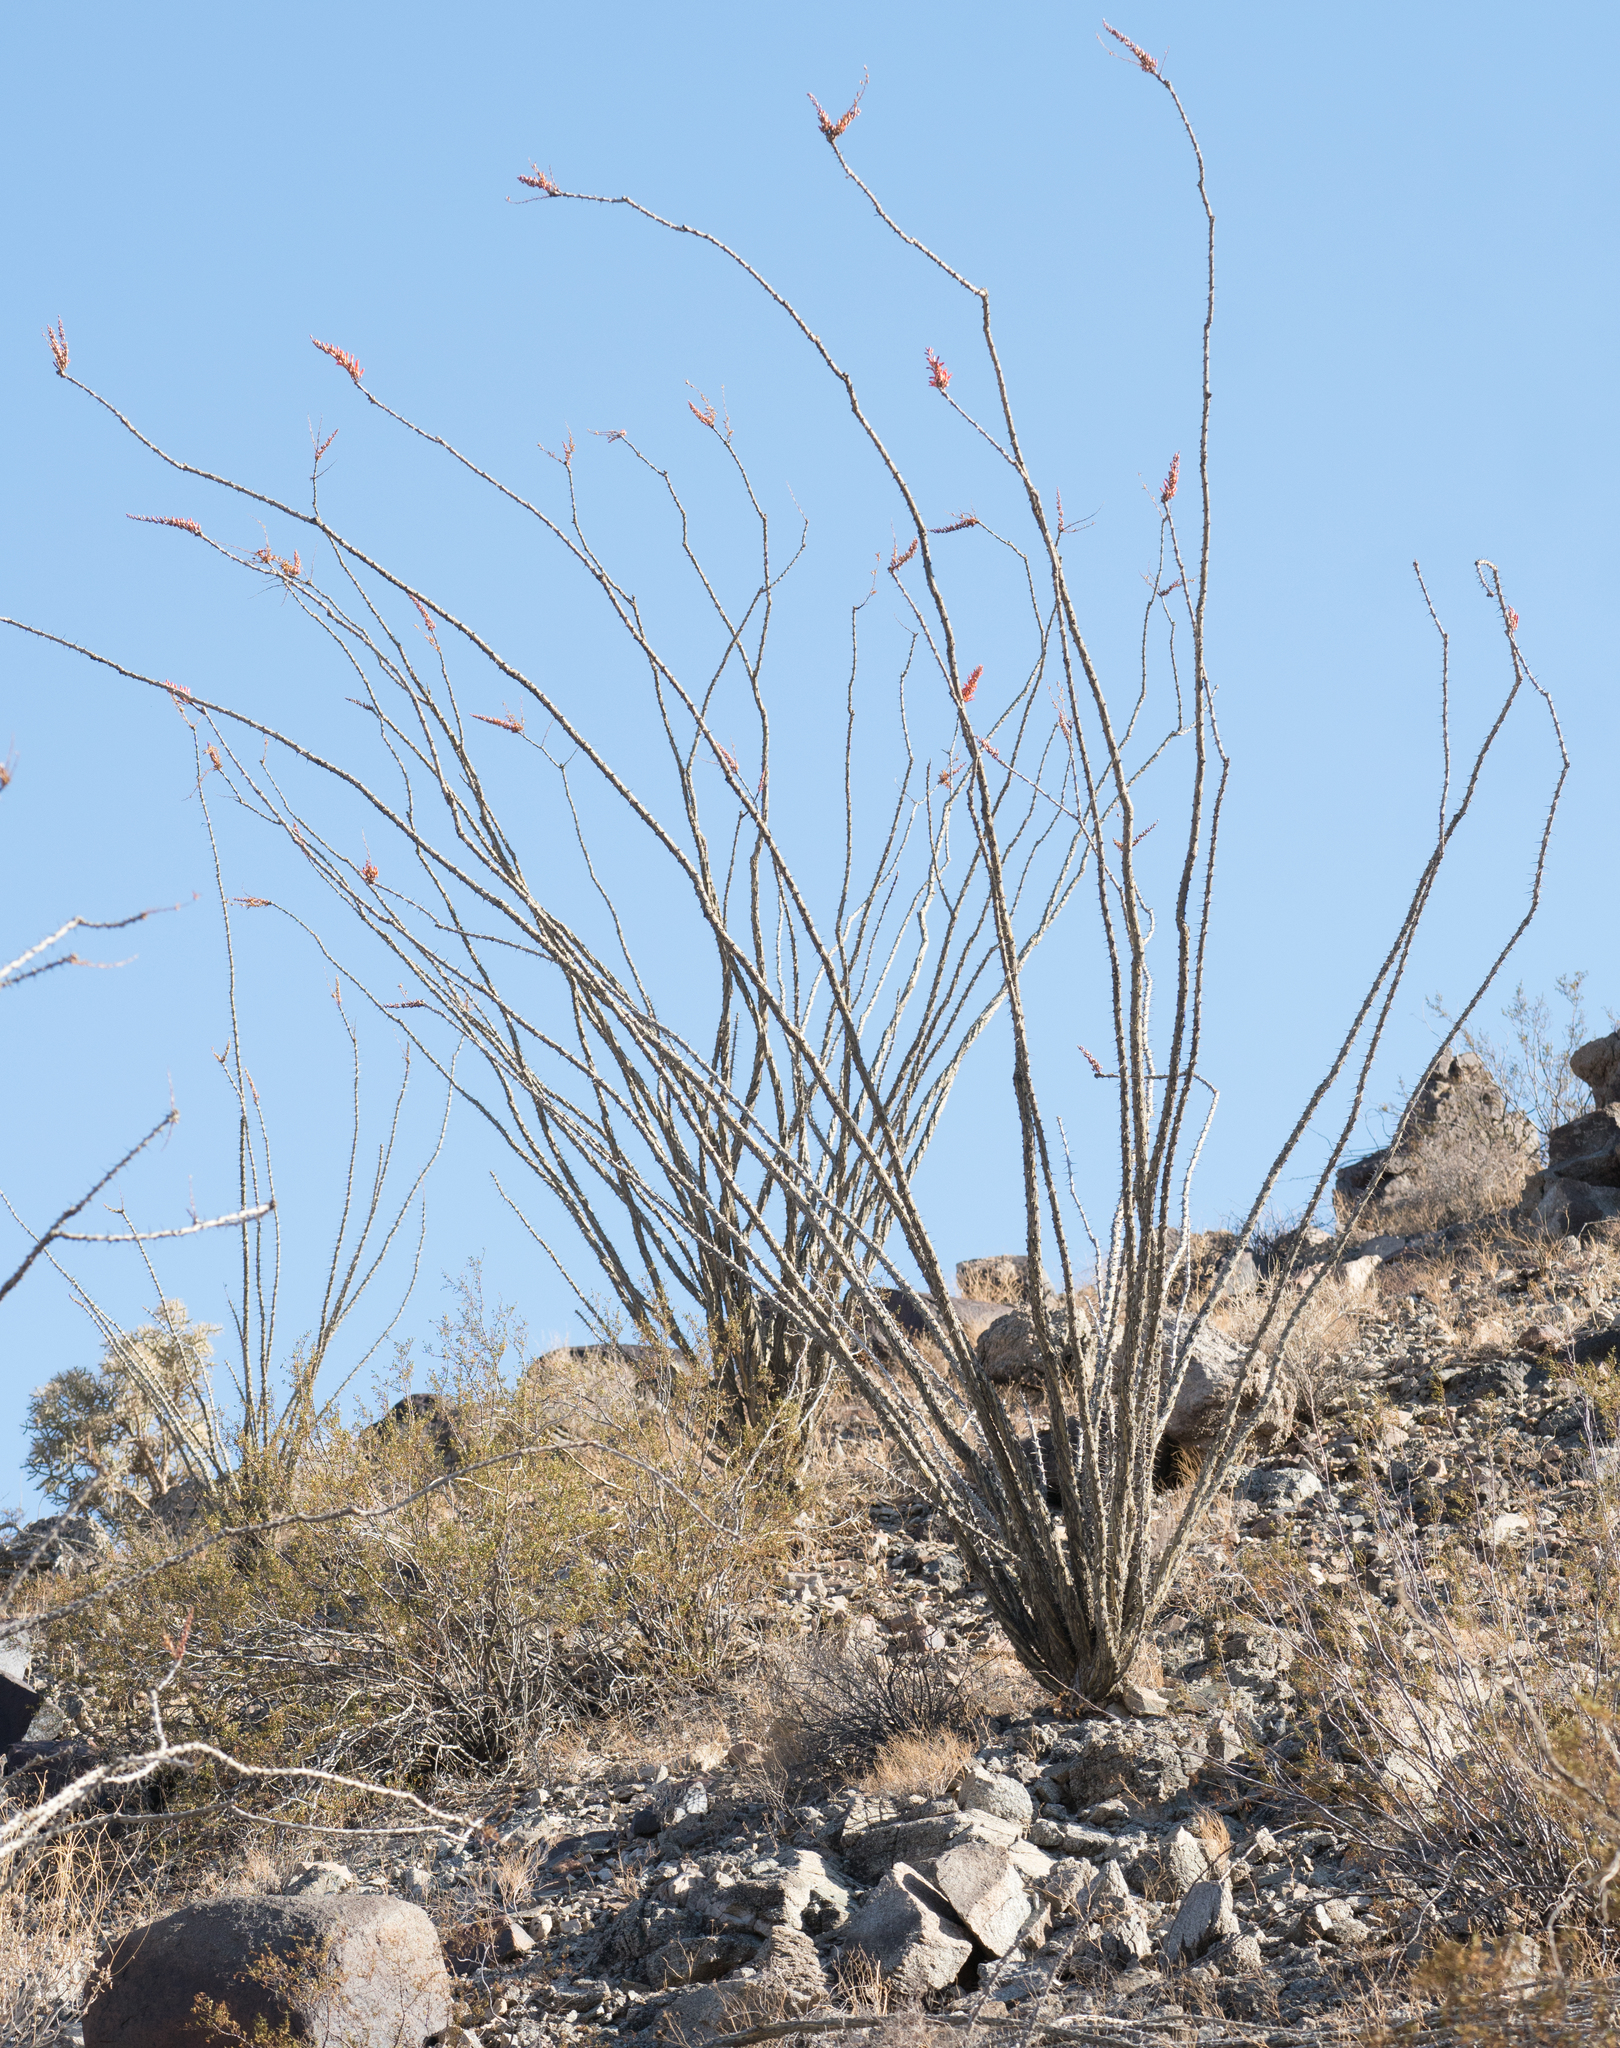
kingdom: Plantae
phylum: Tracheophyta
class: Magnoliopsida
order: Ericales
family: Fouquieriaceae
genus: Fouquieria
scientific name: Fouquieria splendens
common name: Vine-cactus
